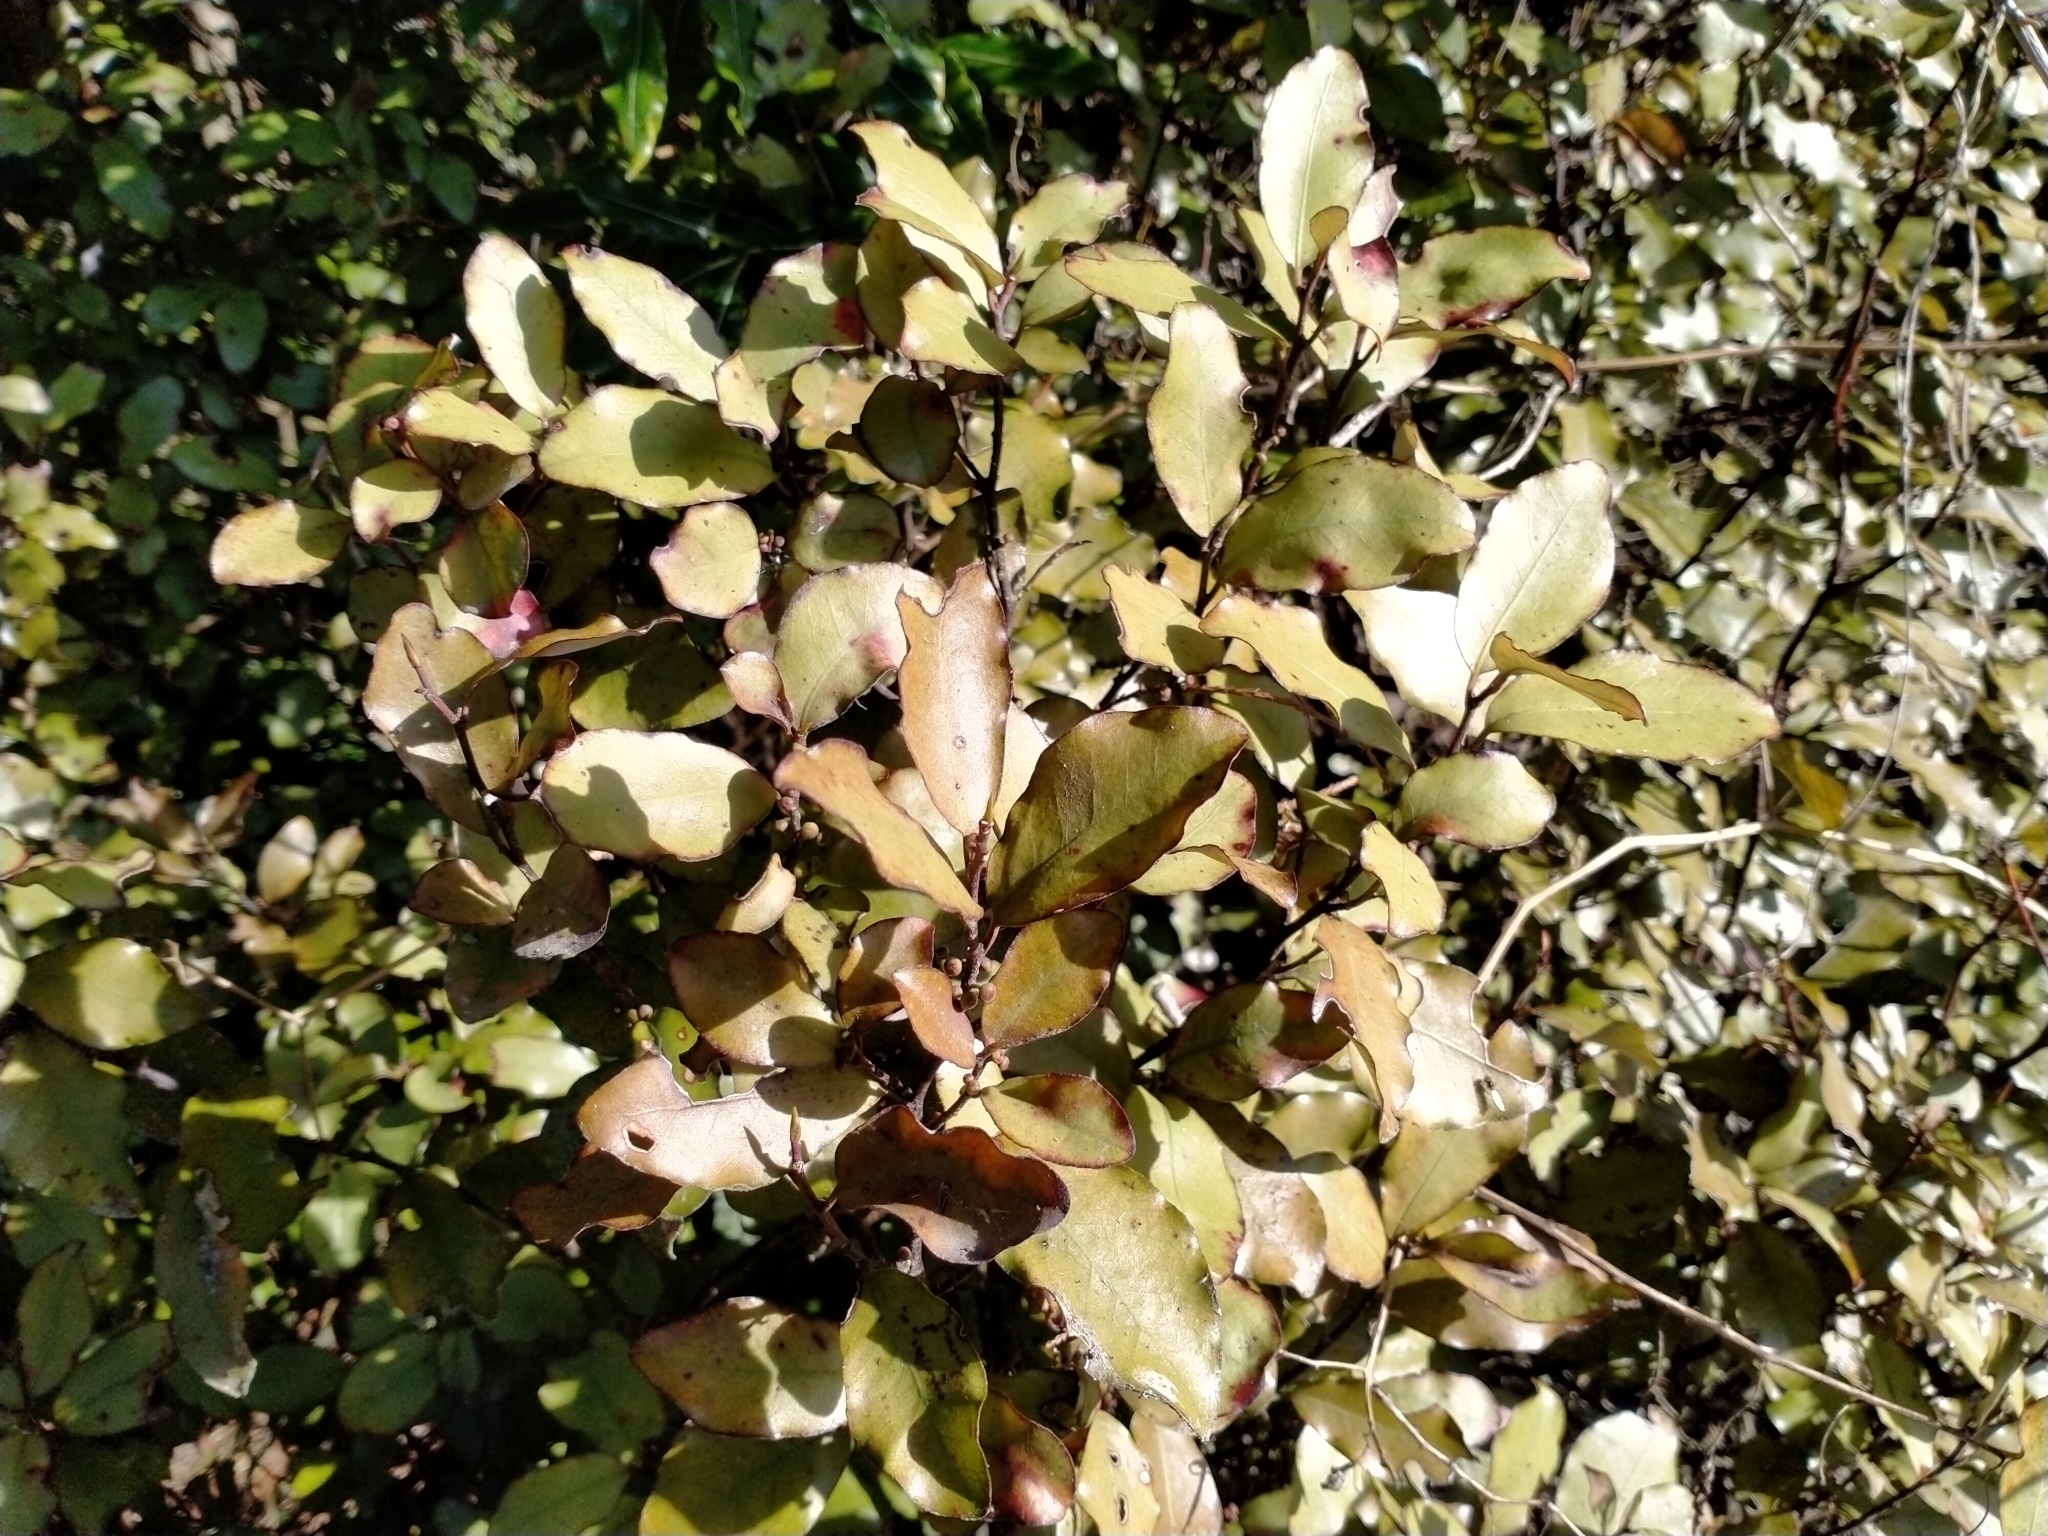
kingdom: Plantae
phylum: Tracheophyta
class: Magnoliopsida
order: Canellales
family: Winteraceae
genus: Pseudowintera
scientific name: Pseudowintera colorata
